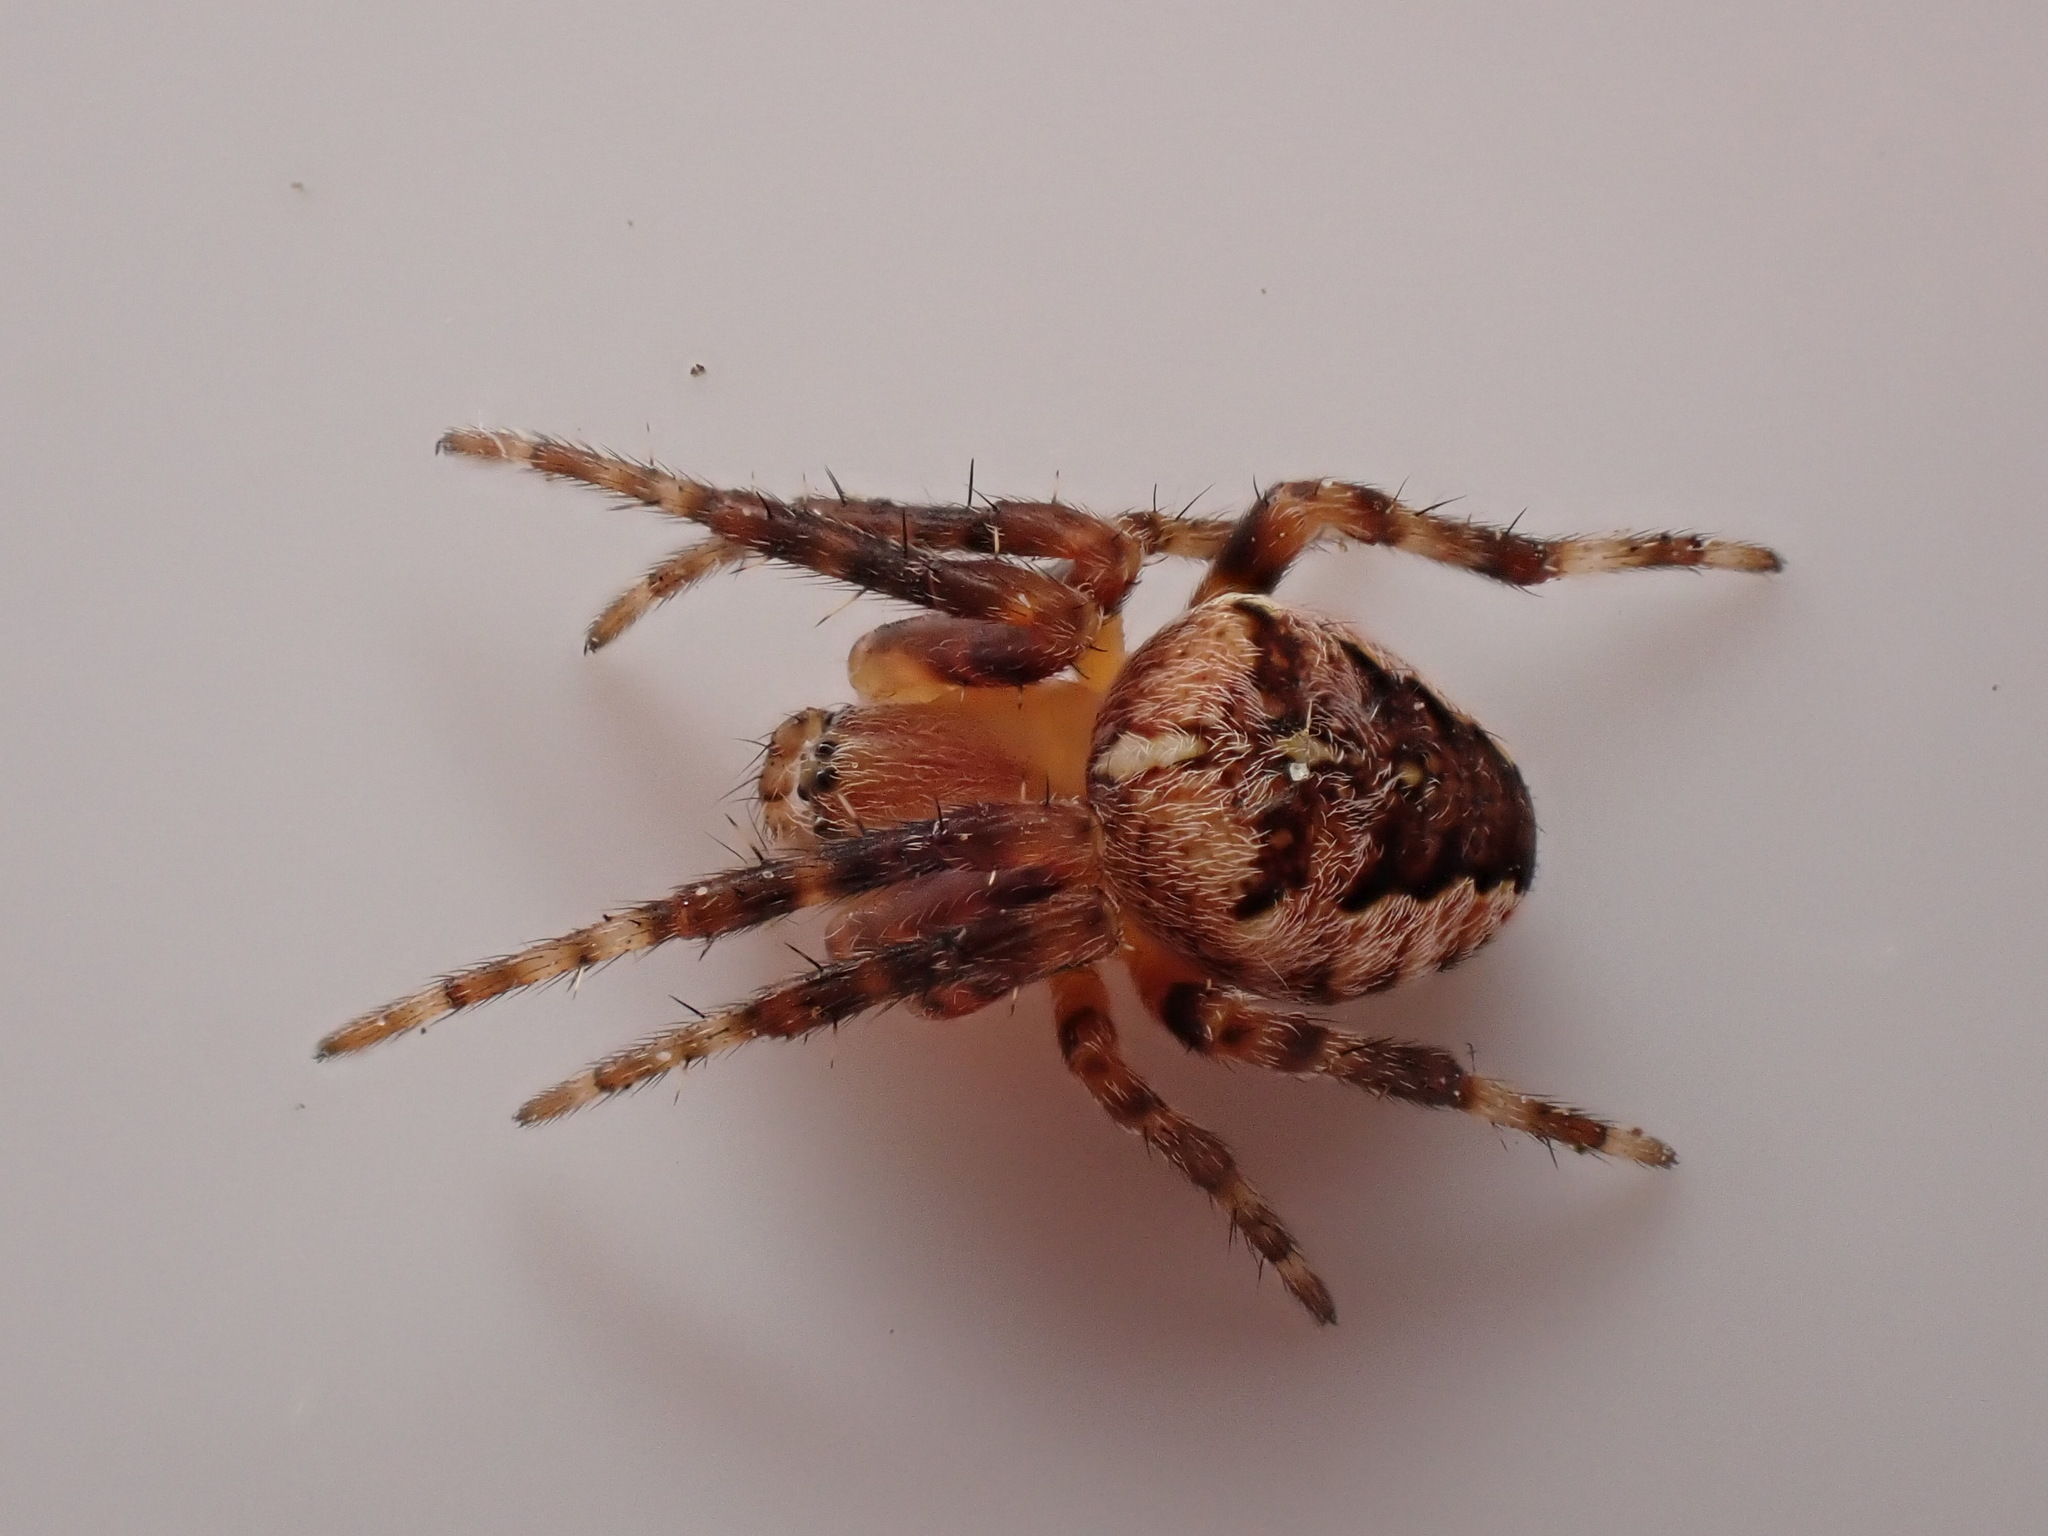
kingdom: Animalia
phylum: Arthropoda
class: Arachnida
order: Araneae
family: Araneidae
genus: Araneus
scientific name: Araneus diadematus
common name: Cross orbweaver
